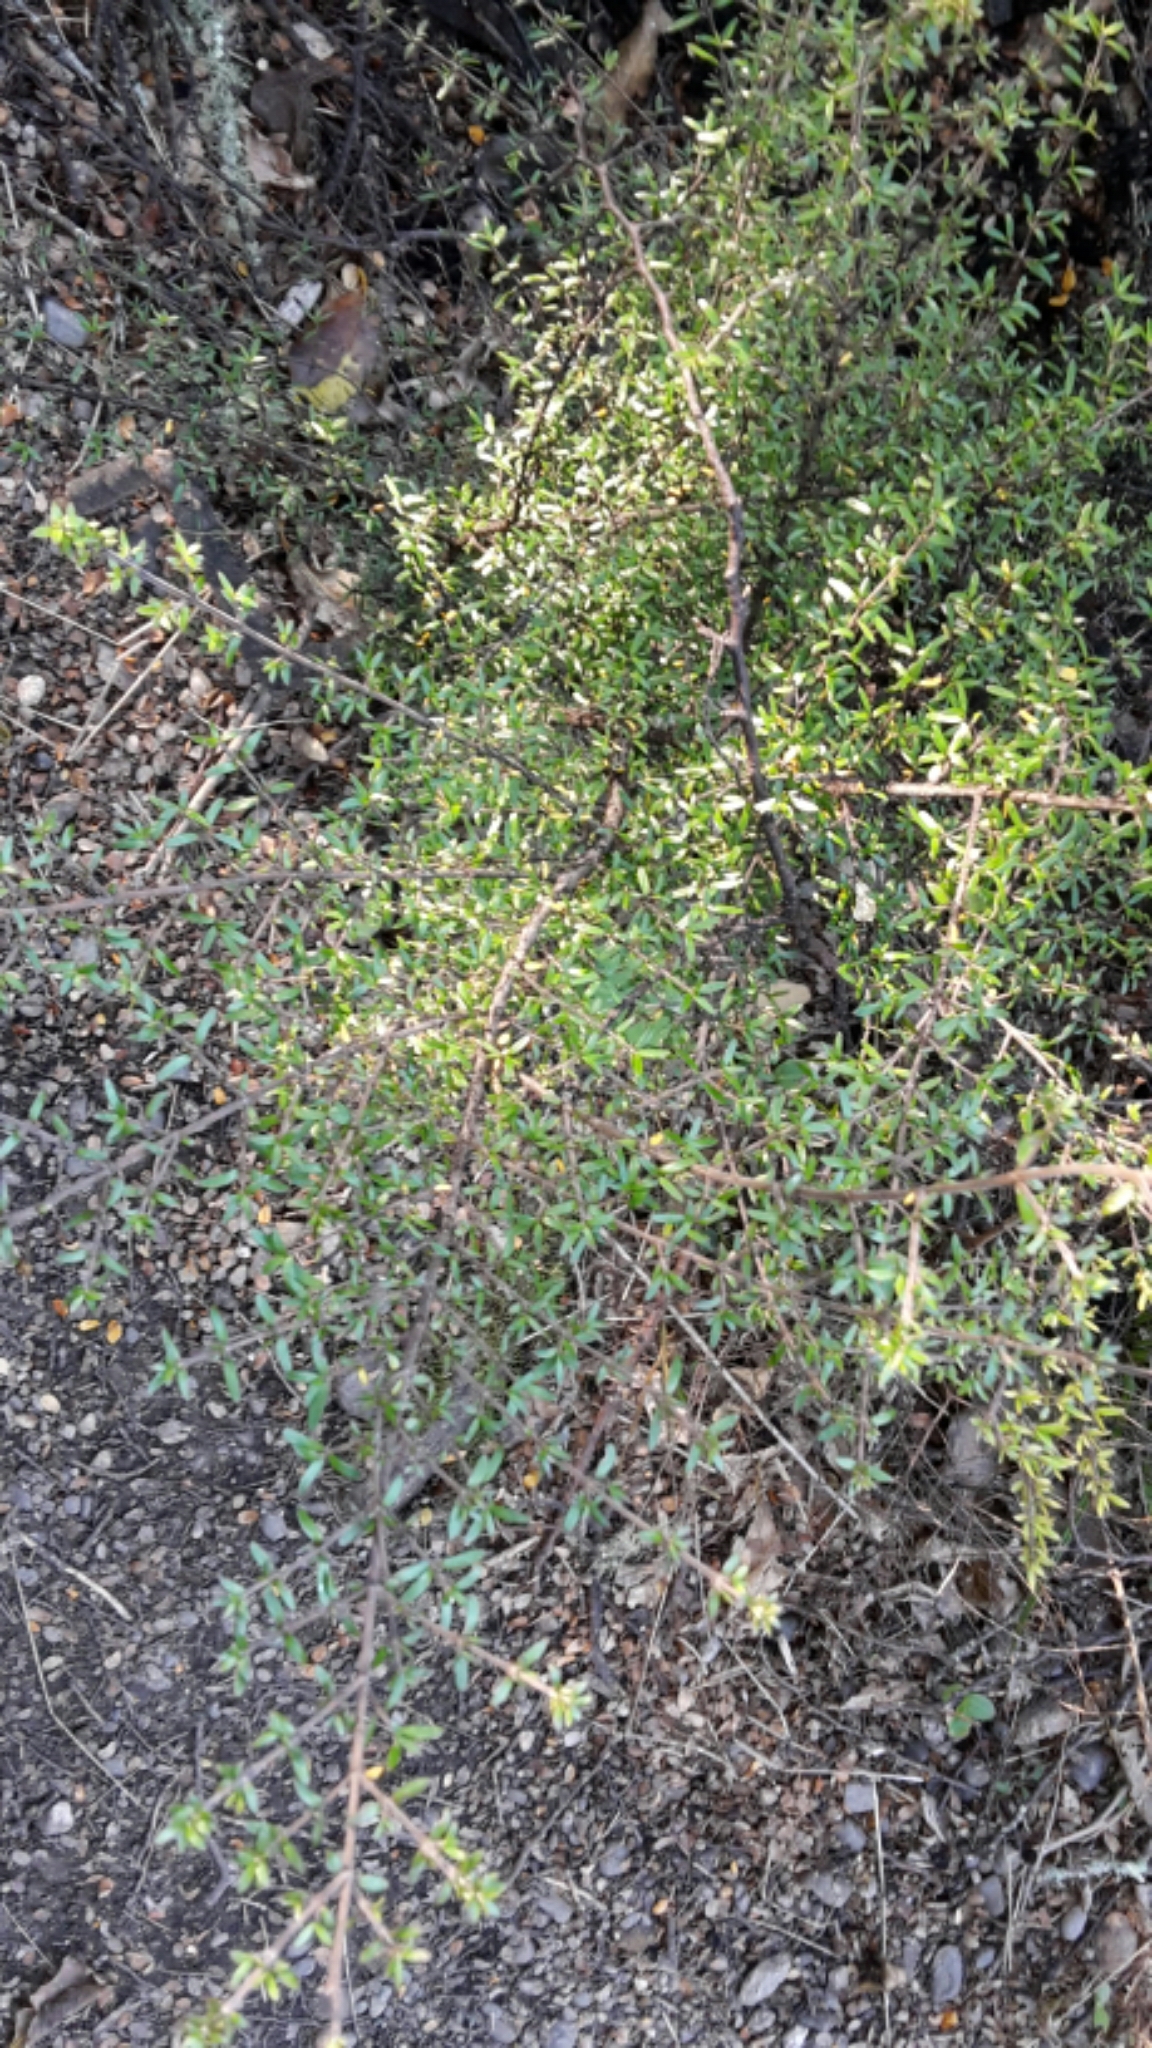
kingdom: Plantae
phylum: Tracheophyta
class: Magnoliopsida
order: Gentianales
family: Rubiaceae
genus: Coprosma
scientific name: Coprosma microcarpa
